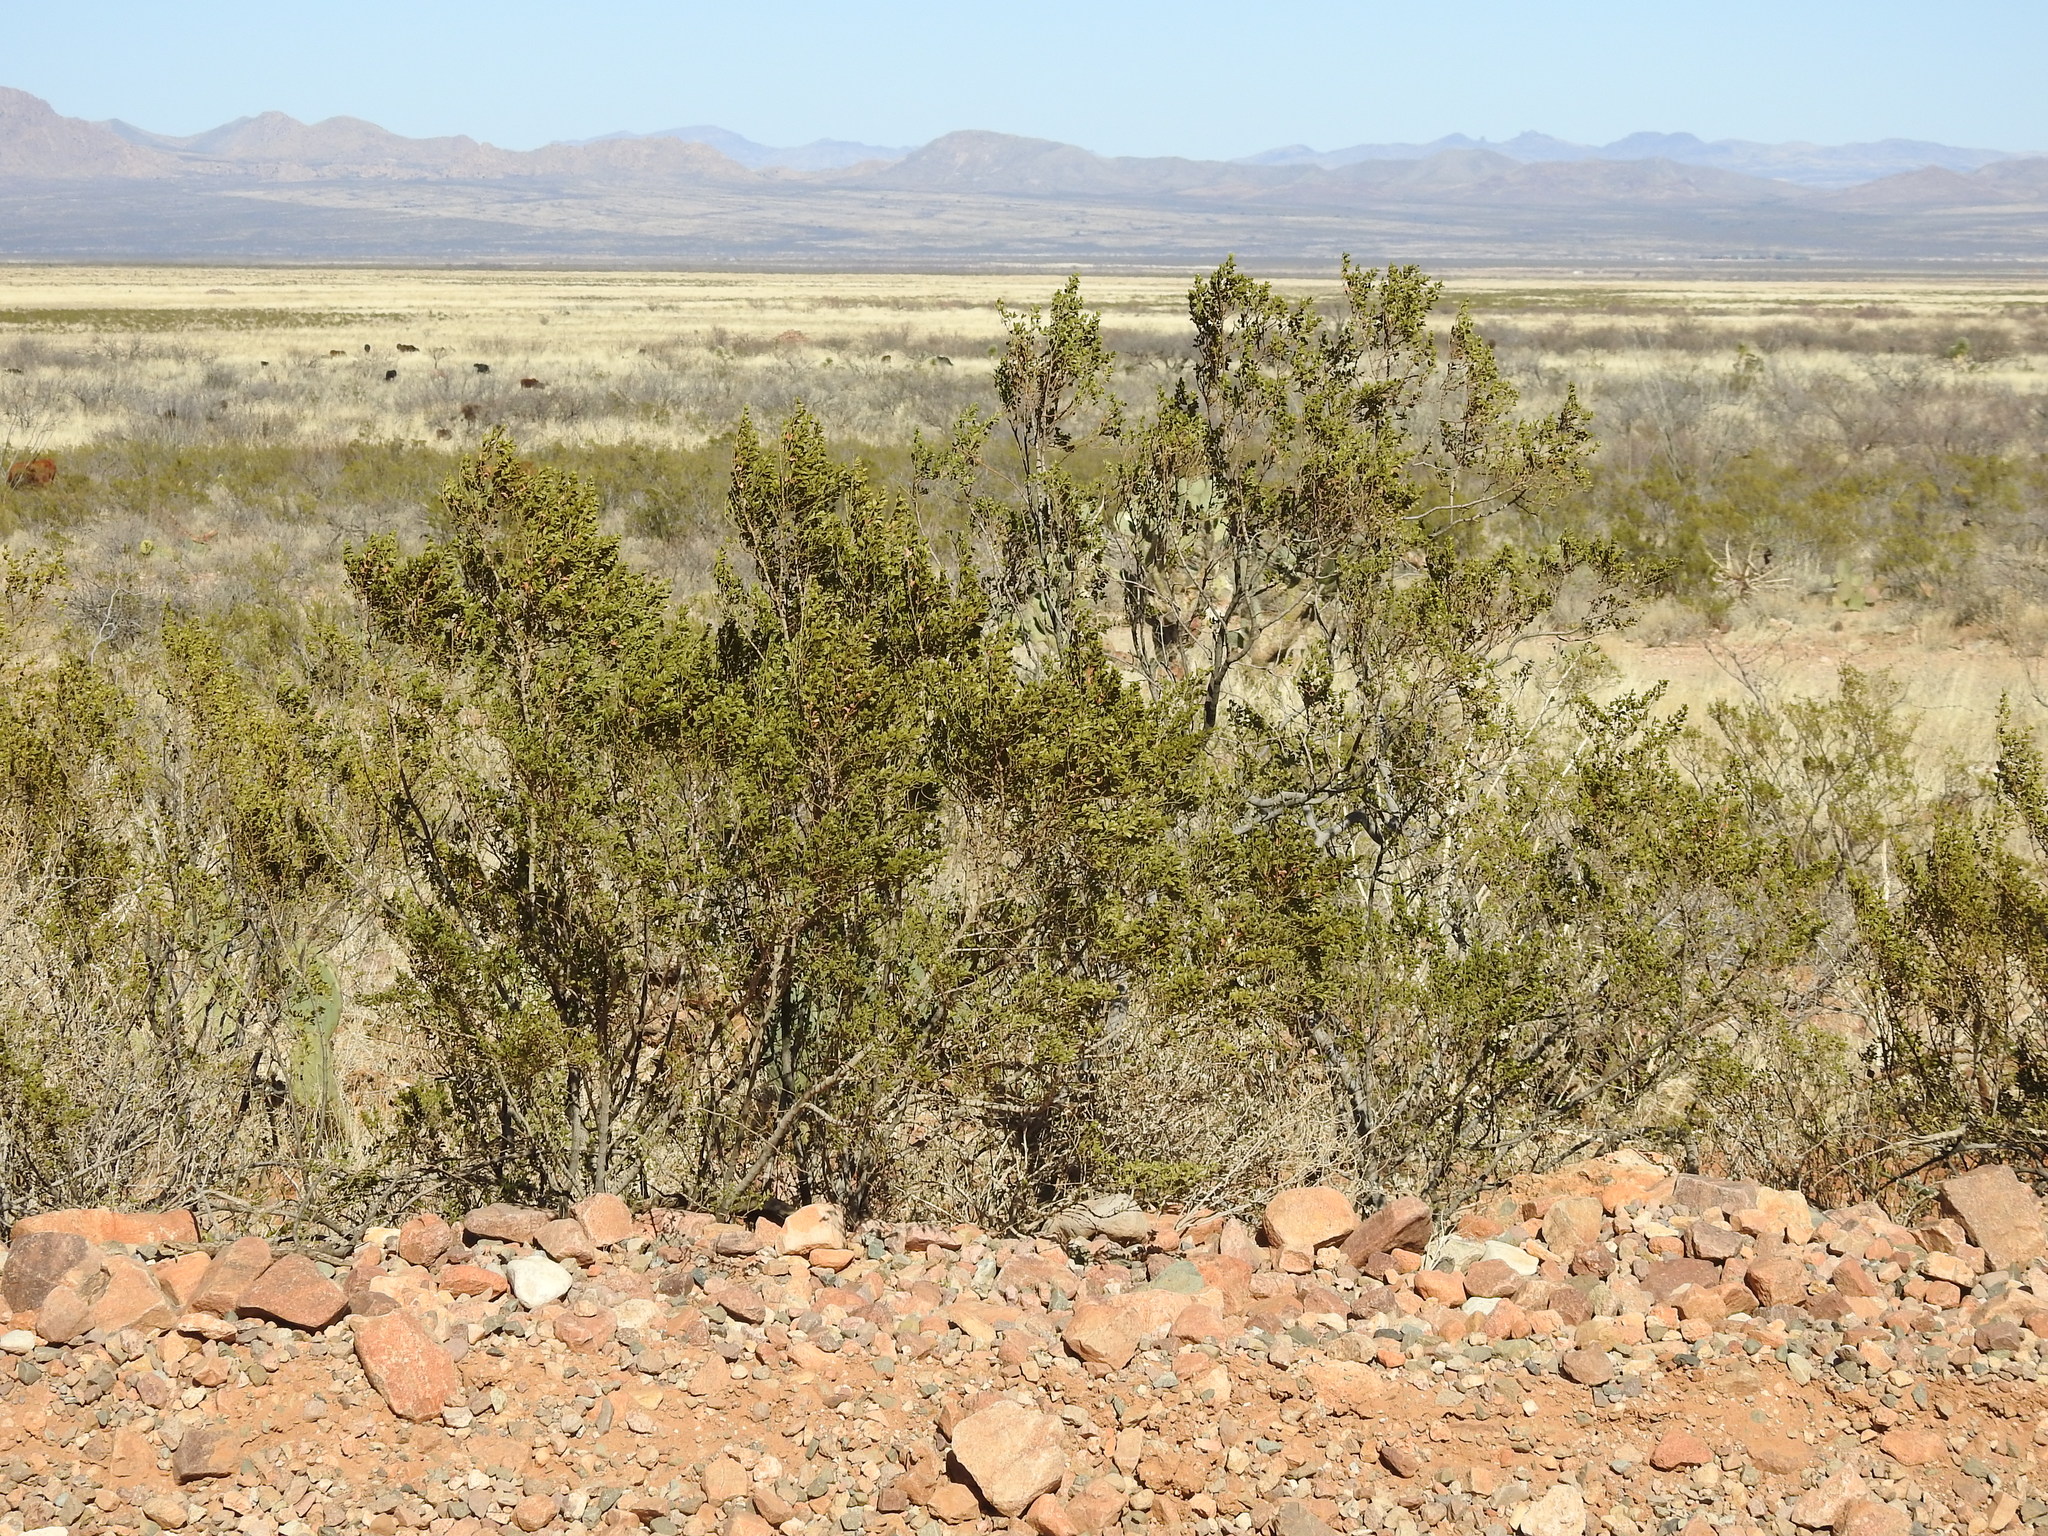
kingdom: Plantae
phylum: Tracheophyta
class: Magnoliopsida
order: Zygophyllales
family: Zygophyllaceae
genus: Larrea
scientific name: Larrea tridentata
